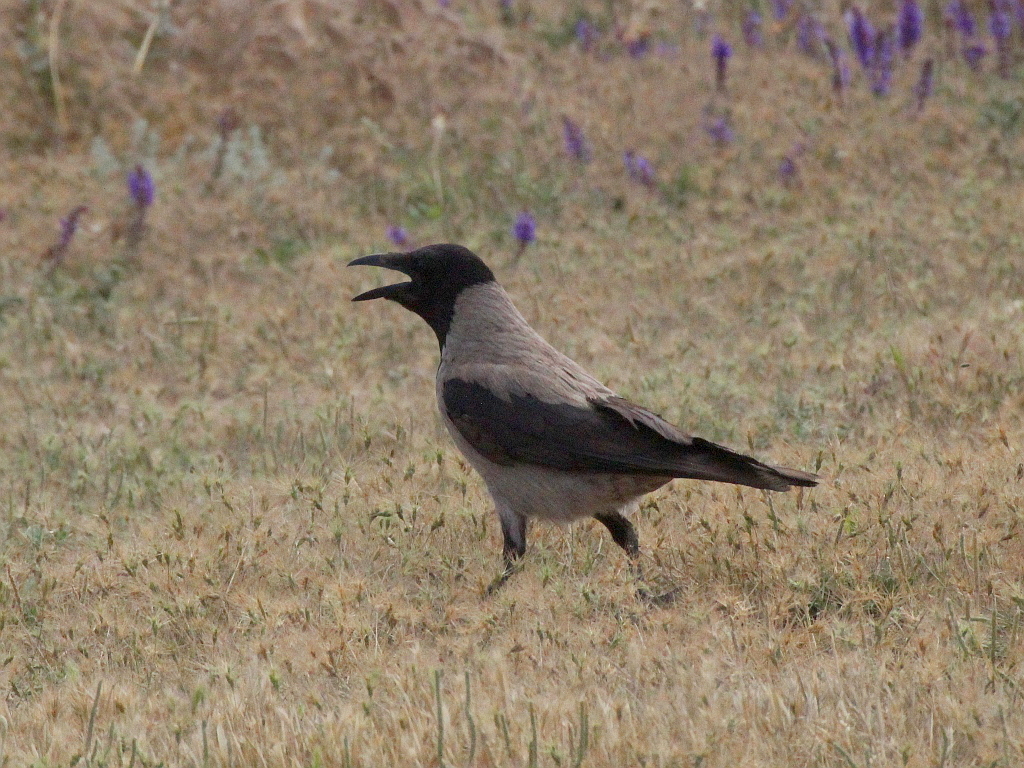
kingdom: Animalia
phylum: Chordata
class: Aves
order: Passeriformes
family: Corvidae
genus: Corvus
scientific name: Corvus cornix
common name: Hooded crow
